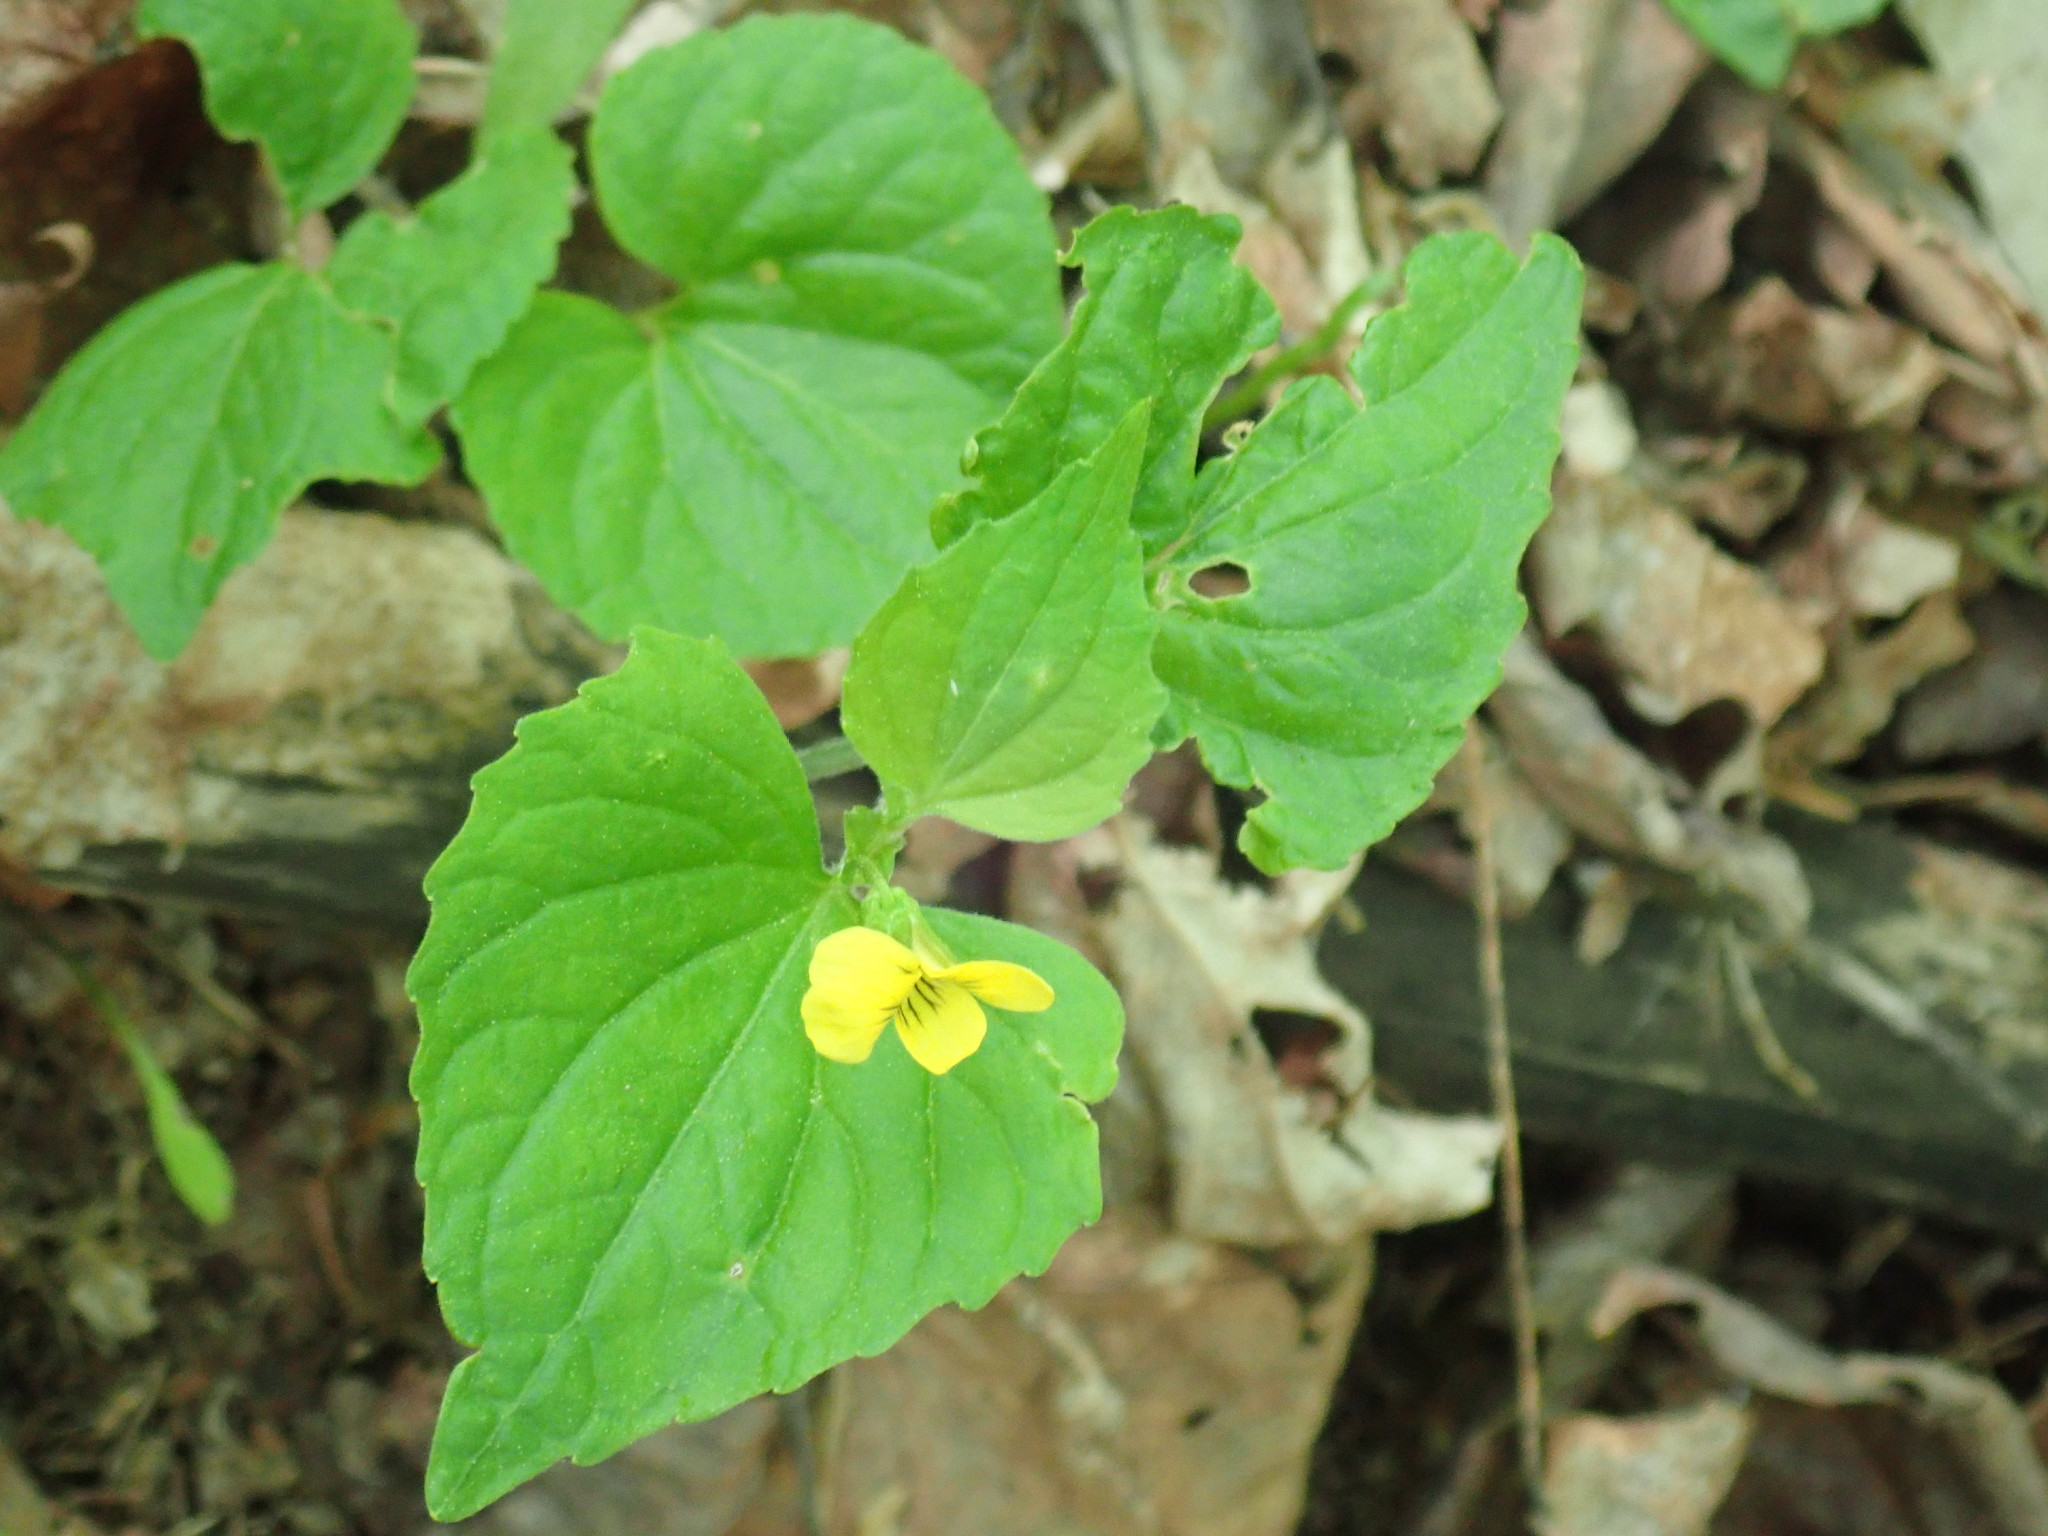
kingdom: Plantae
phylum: Tracheophyta
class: Magnoliopsida
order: Malpighiales
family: Violaceae
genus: Viola
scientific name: Viola eriocarpa
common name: Smooth yellow violet
